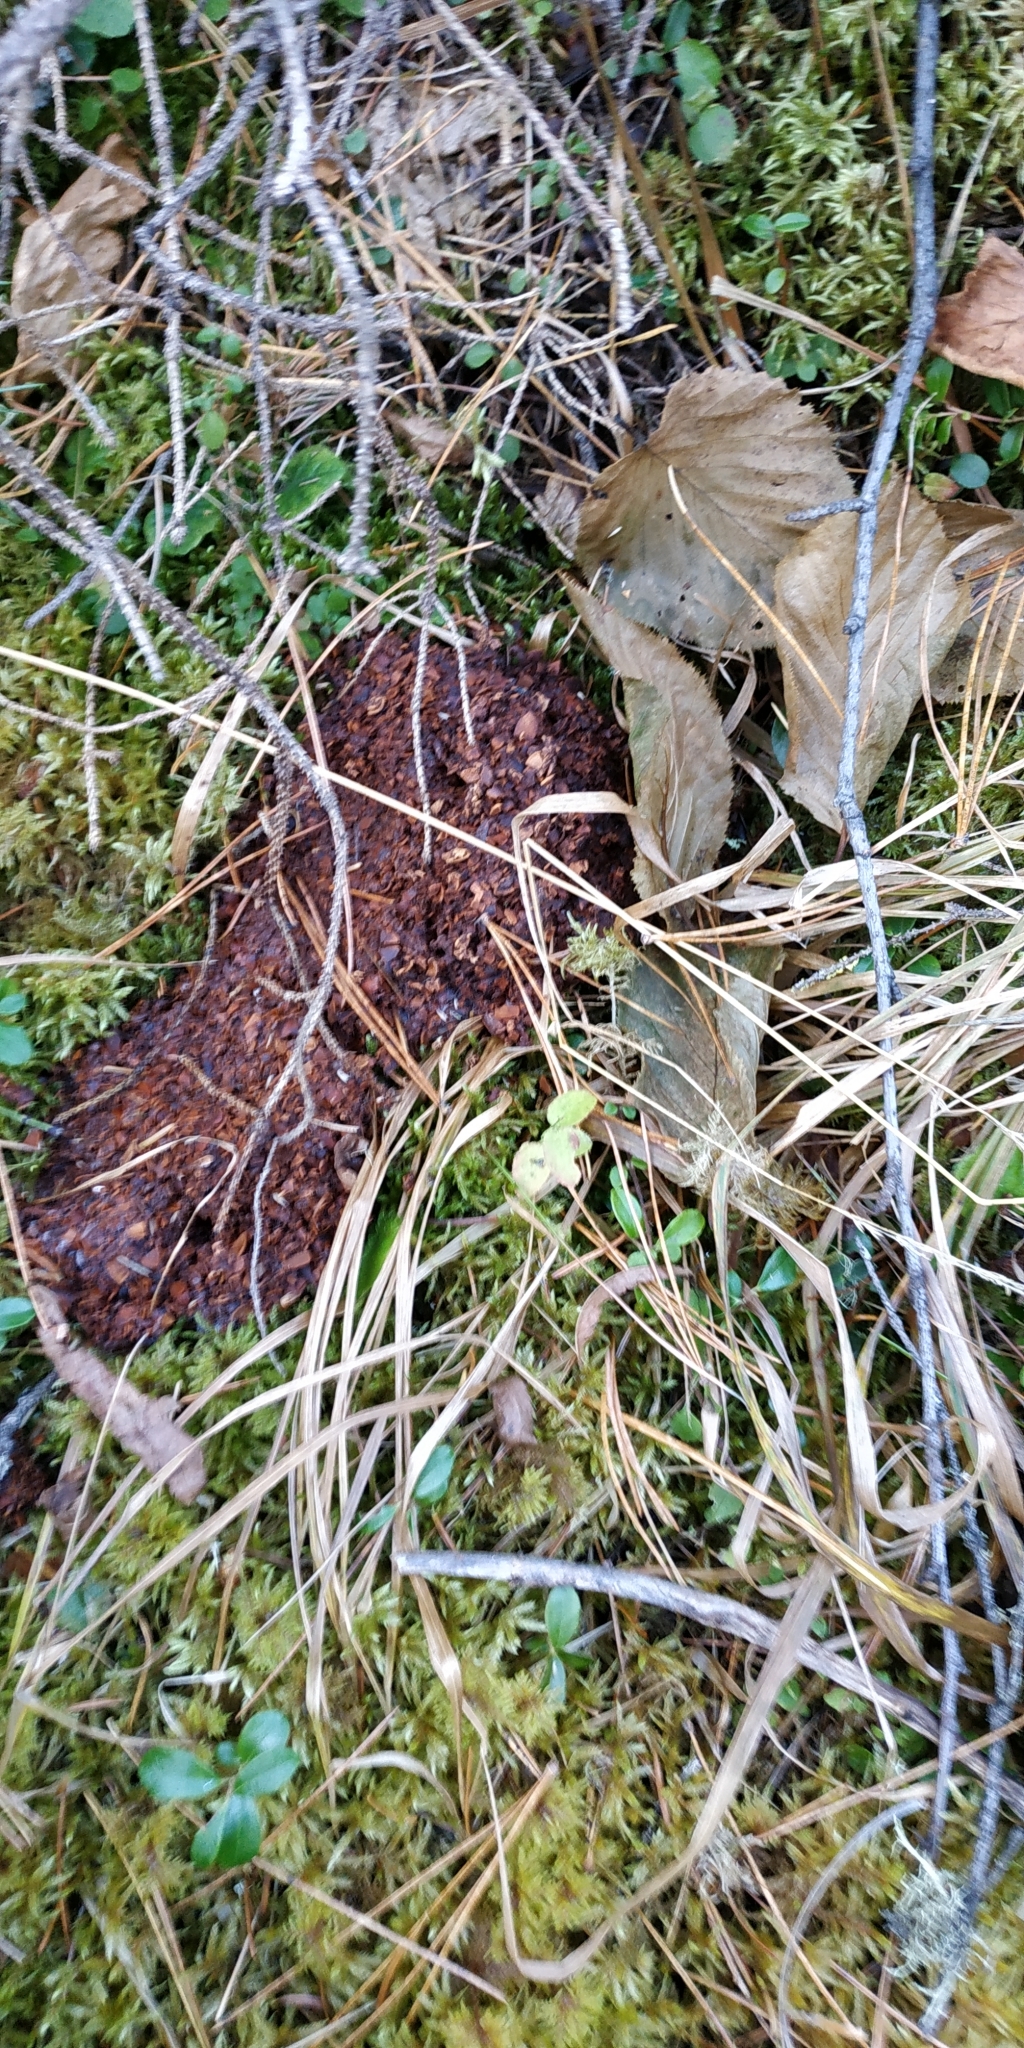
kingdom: Animalia
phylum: Chordata
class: Mammalia
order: Carnivora
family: Ursidae
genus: Ursus
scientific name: Ursus arctos
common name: Brown bear
